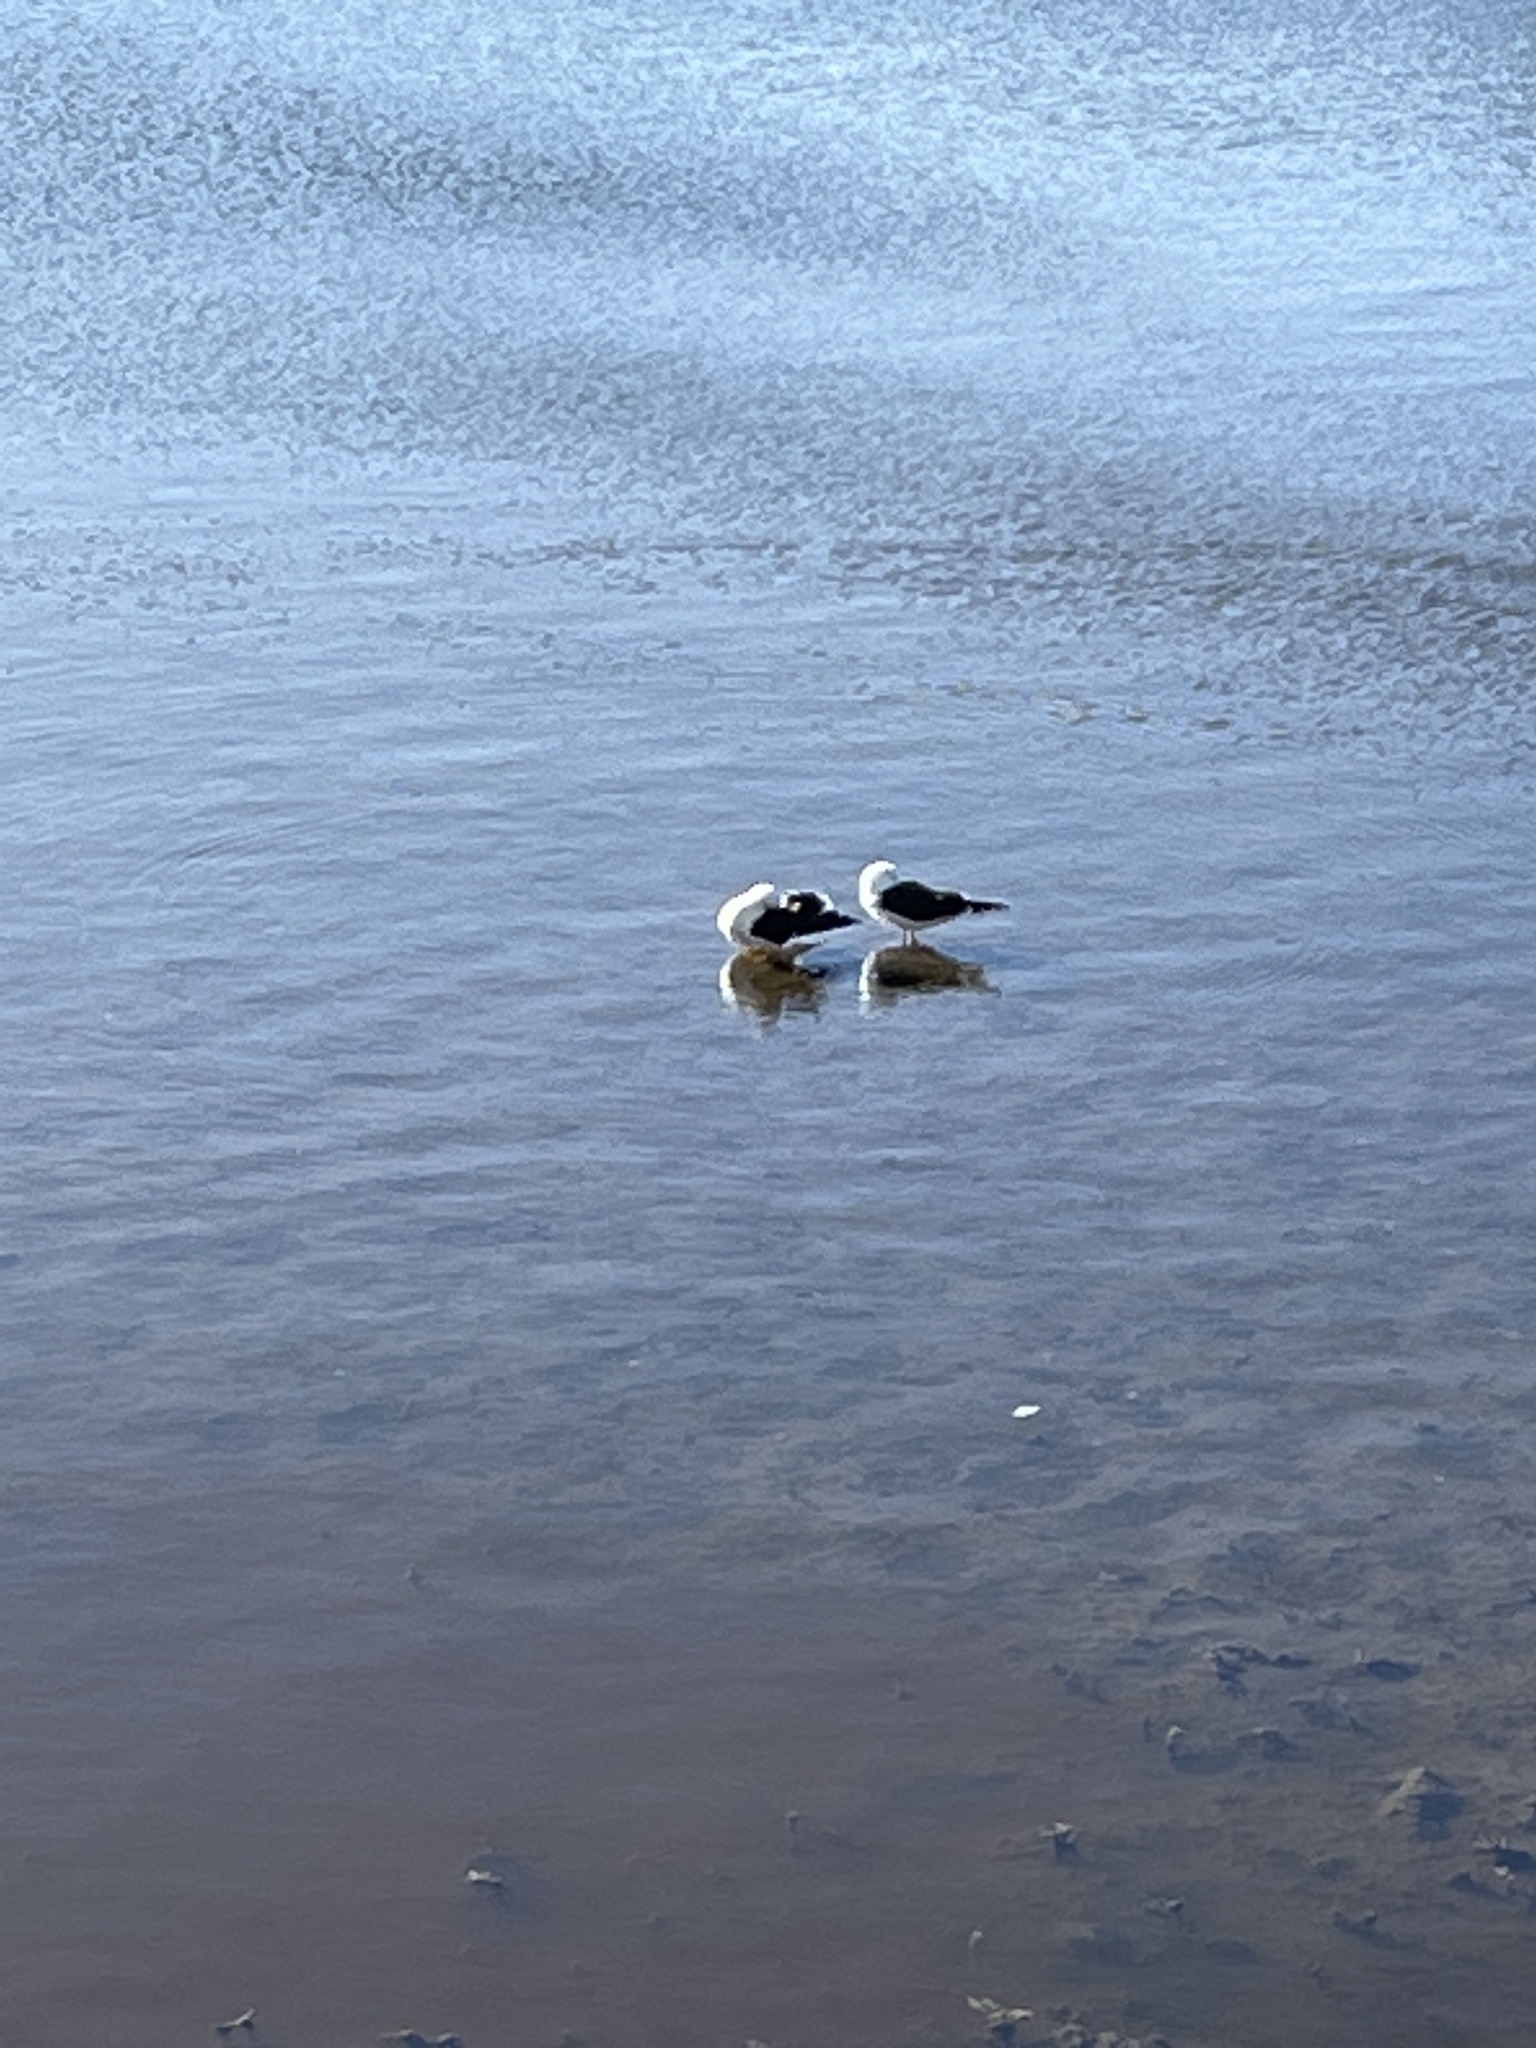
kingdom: Animalia
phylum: Chordata
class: Aves
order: Charadriiformes
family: Laridae
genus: Larus
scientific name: Larus marinus
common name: Great black-backed gull
